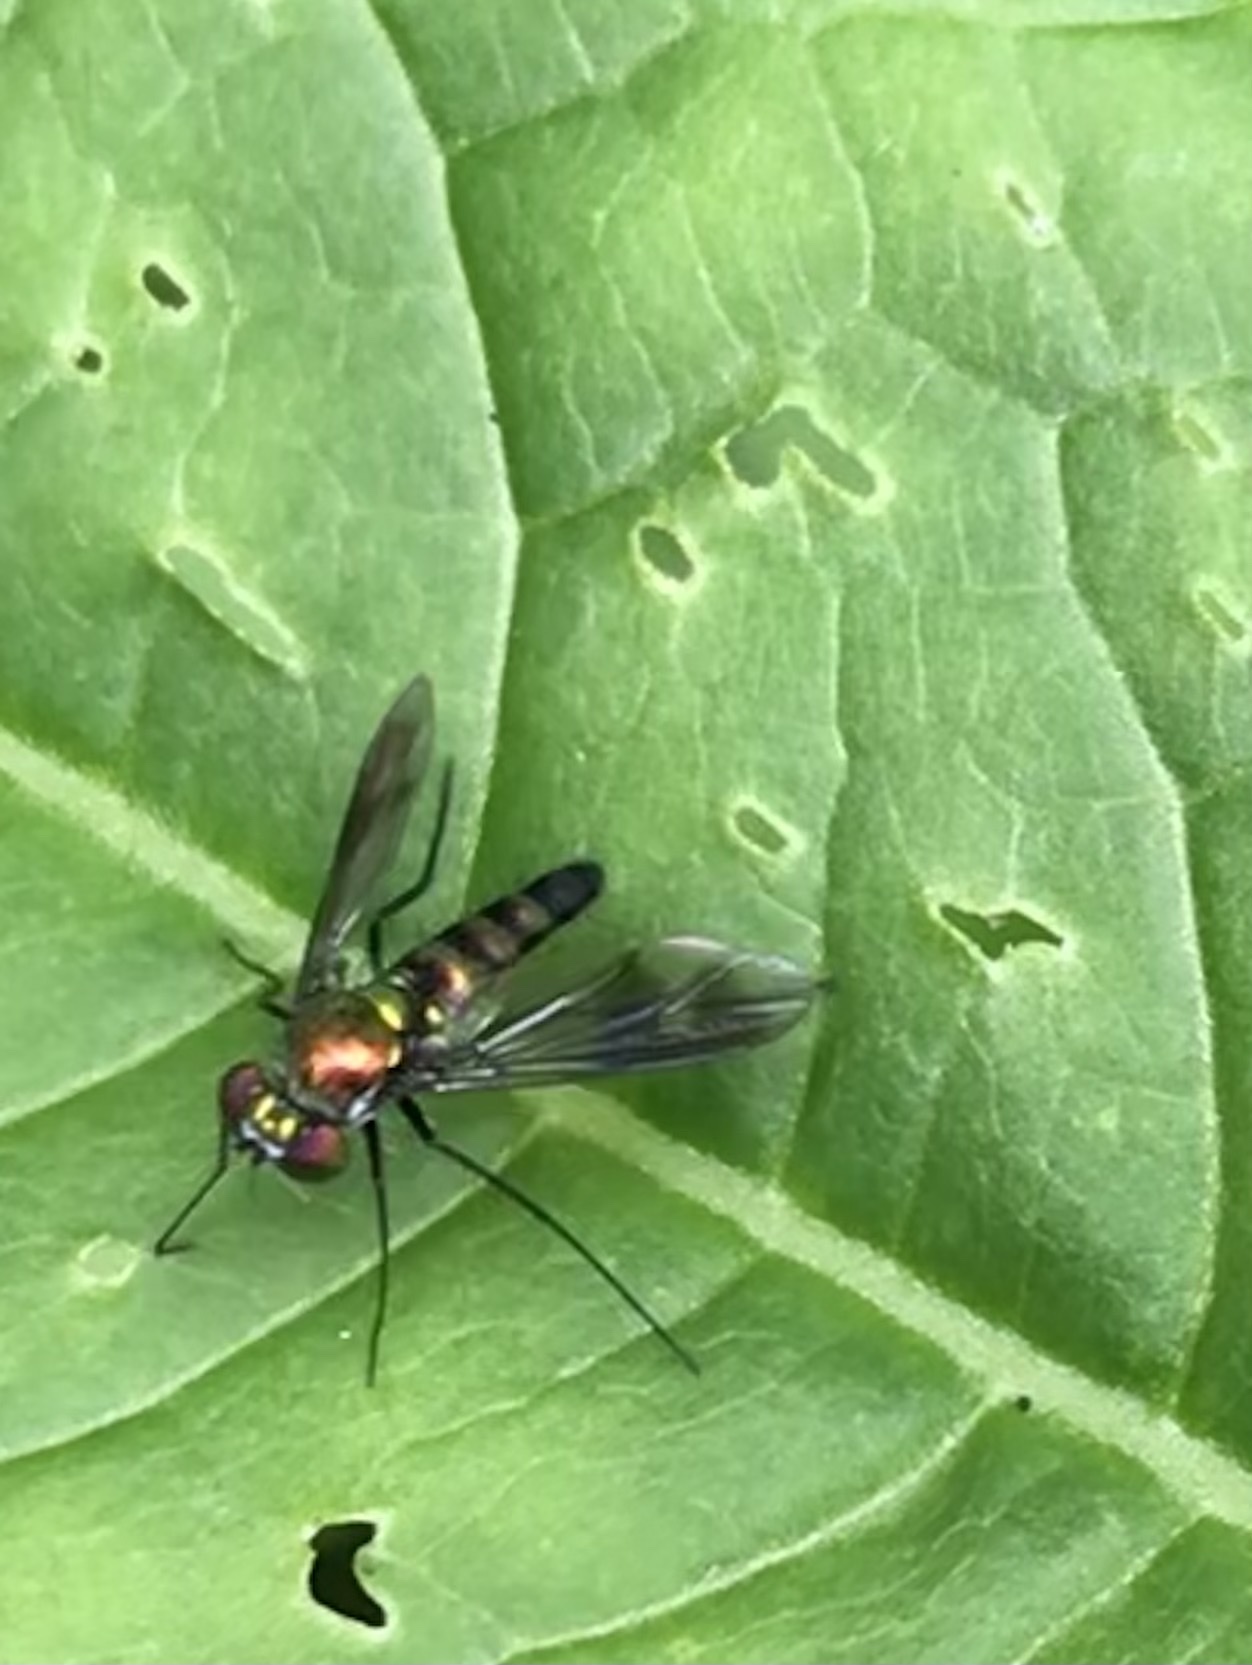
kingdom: Animalia
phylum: Arthropoda
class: Insecta
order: Diptera
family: Dolichopodidae
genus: Condylostylus
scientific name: Condylostylus patibulatus
